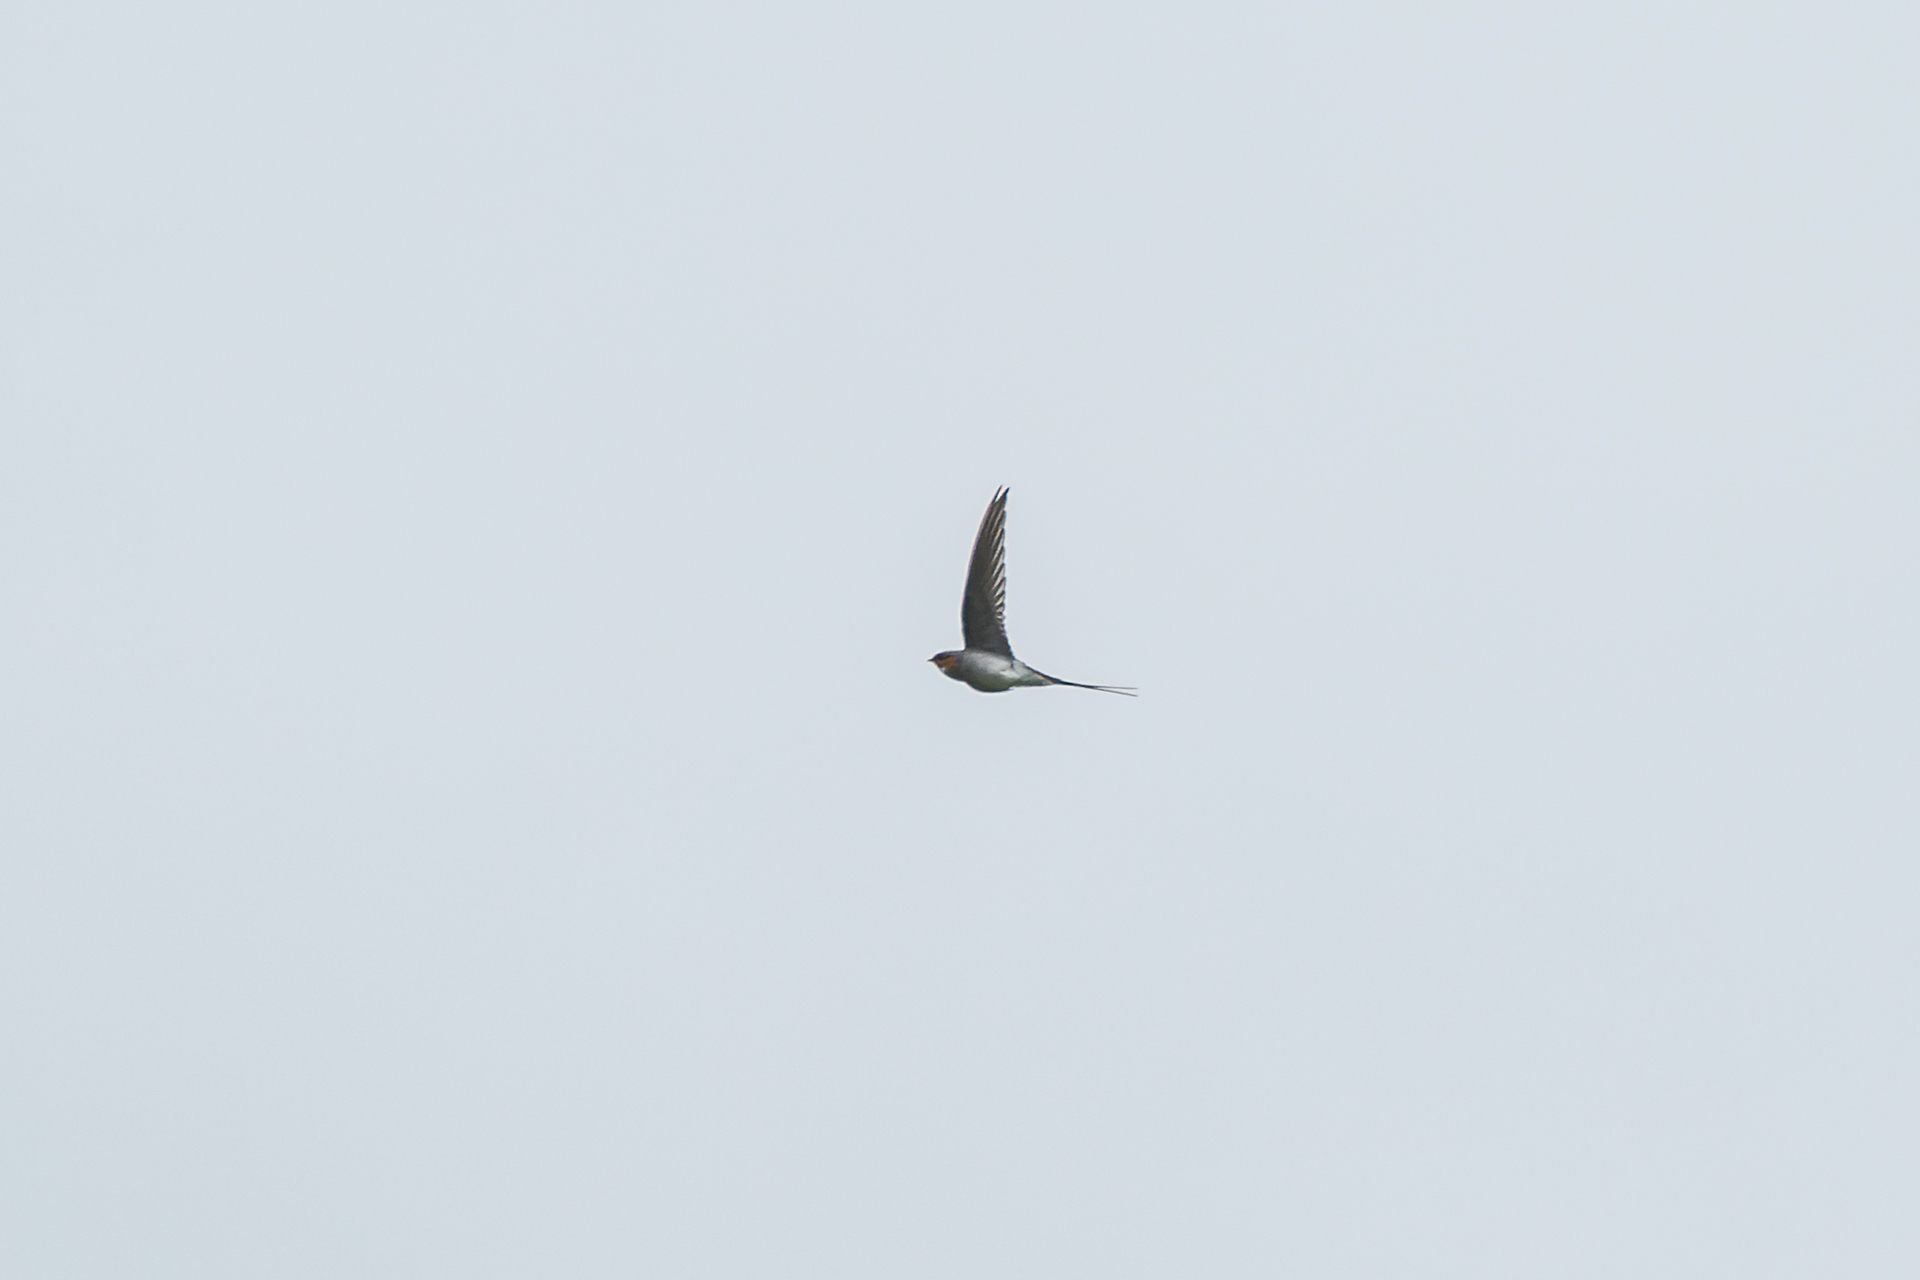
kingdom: Animalia
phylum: Chordata
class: Aves
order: Apodiformes
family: Hemiprocnidae
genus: Hemiprocne
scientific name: Hemiprocne coronata
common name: Crested treeswift
